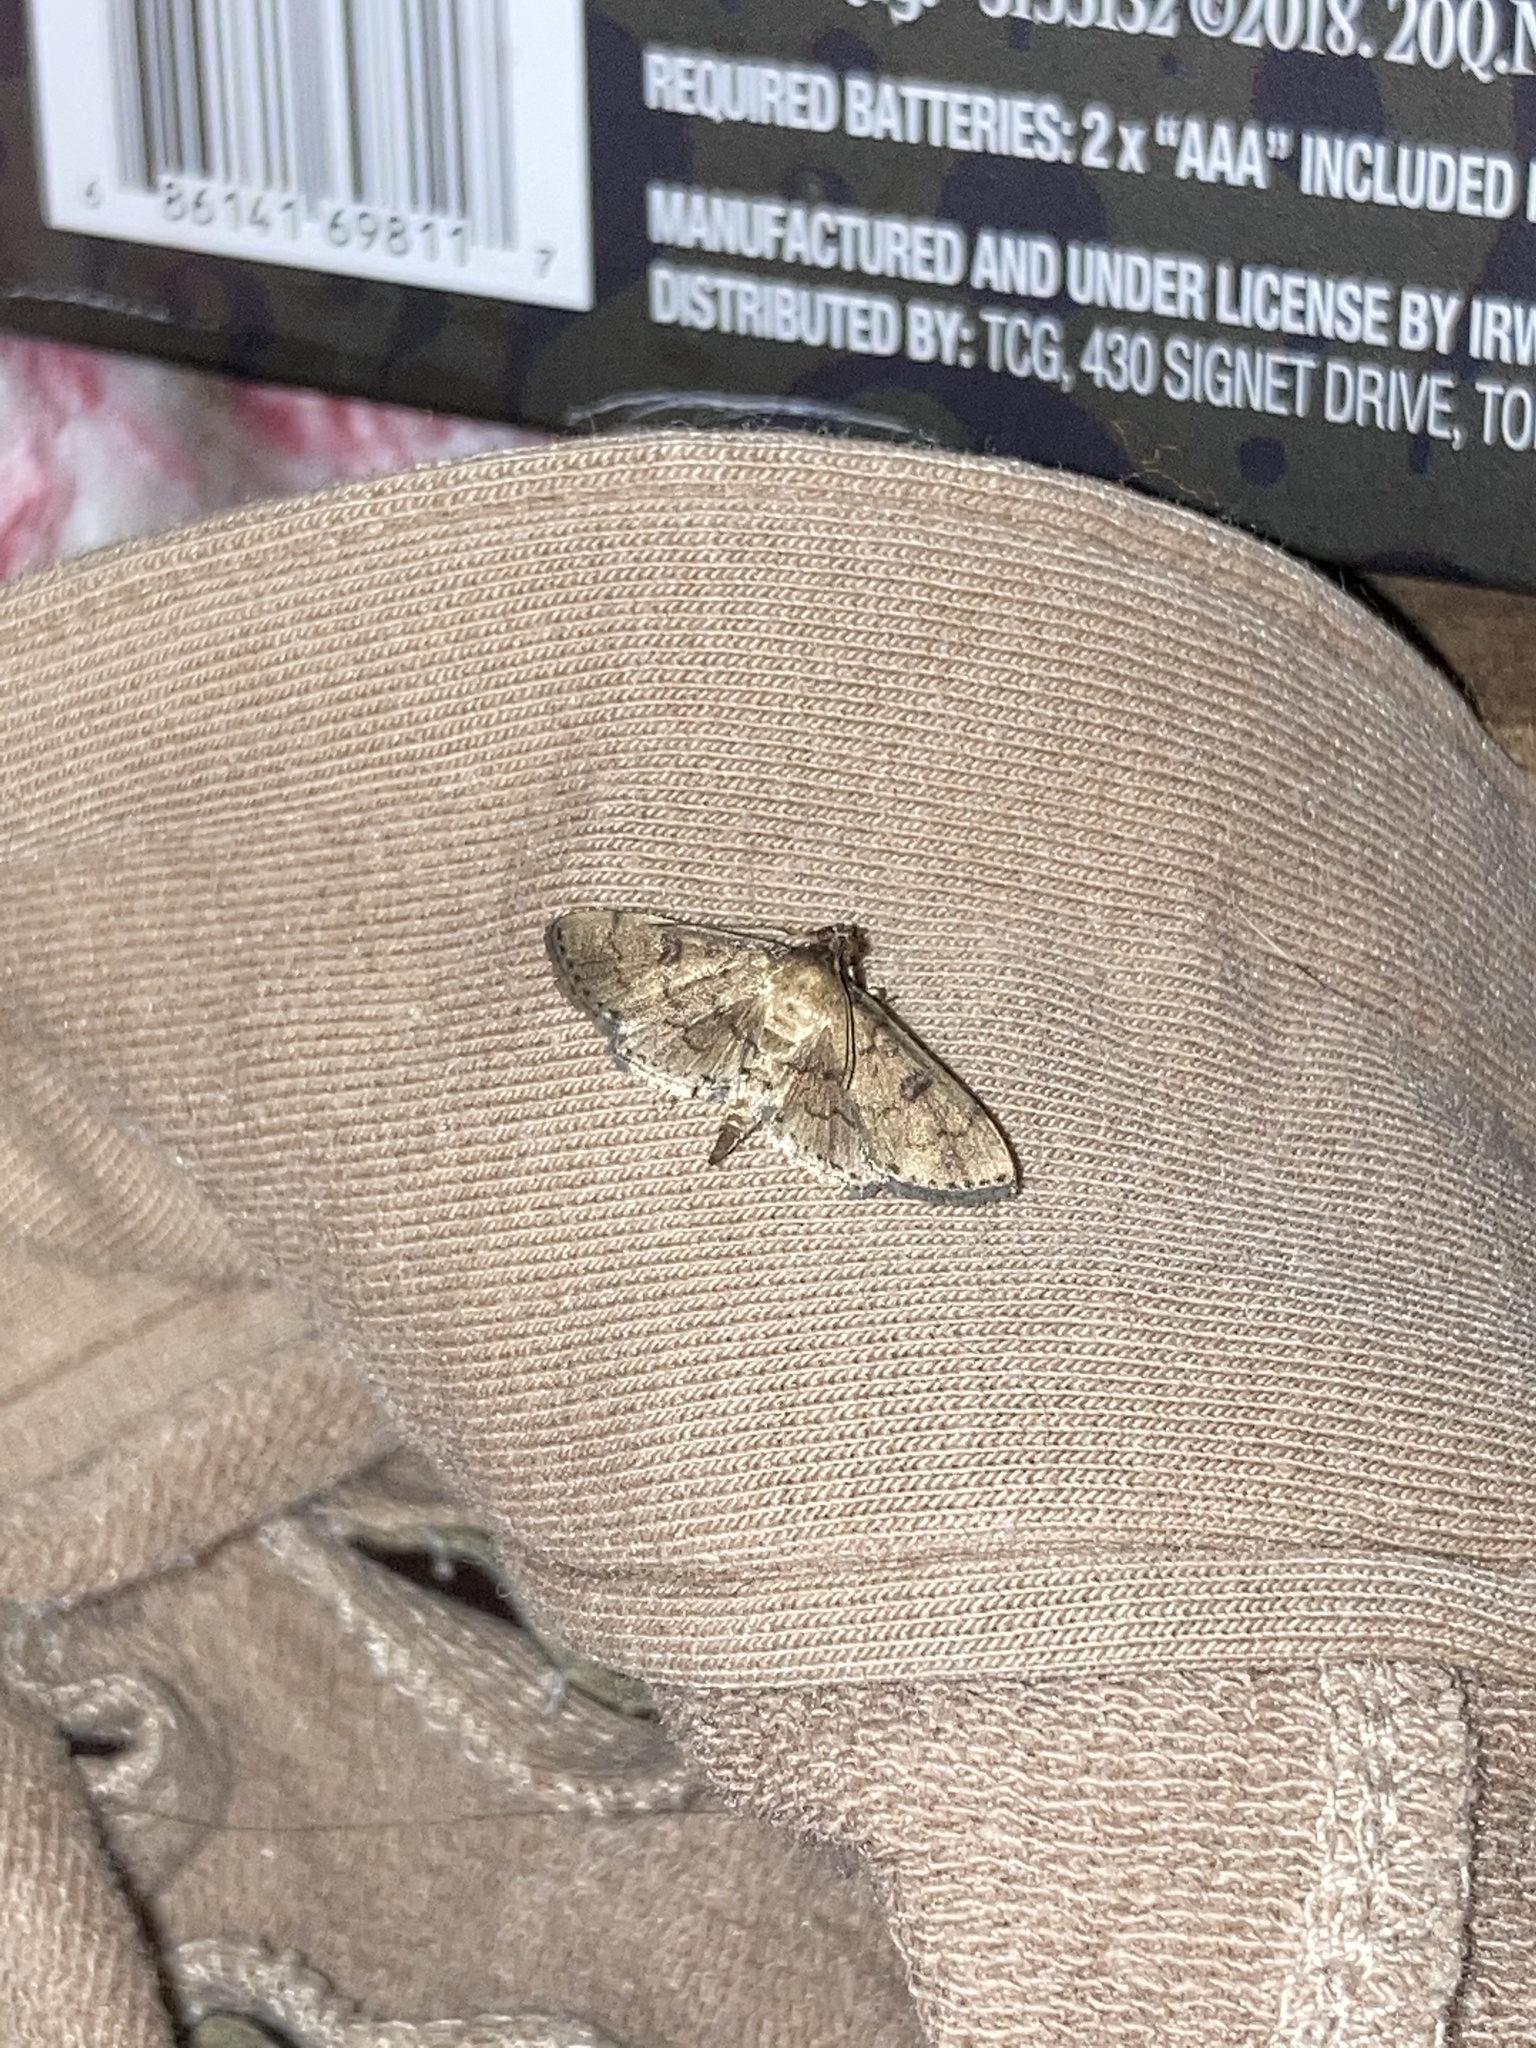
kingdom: Animalia
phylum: Arthropoda
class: Insecta
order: Lepidoptera
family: Crambidae
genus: Lamprosema
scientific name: Lamprosema Blepharomastix ranalis
